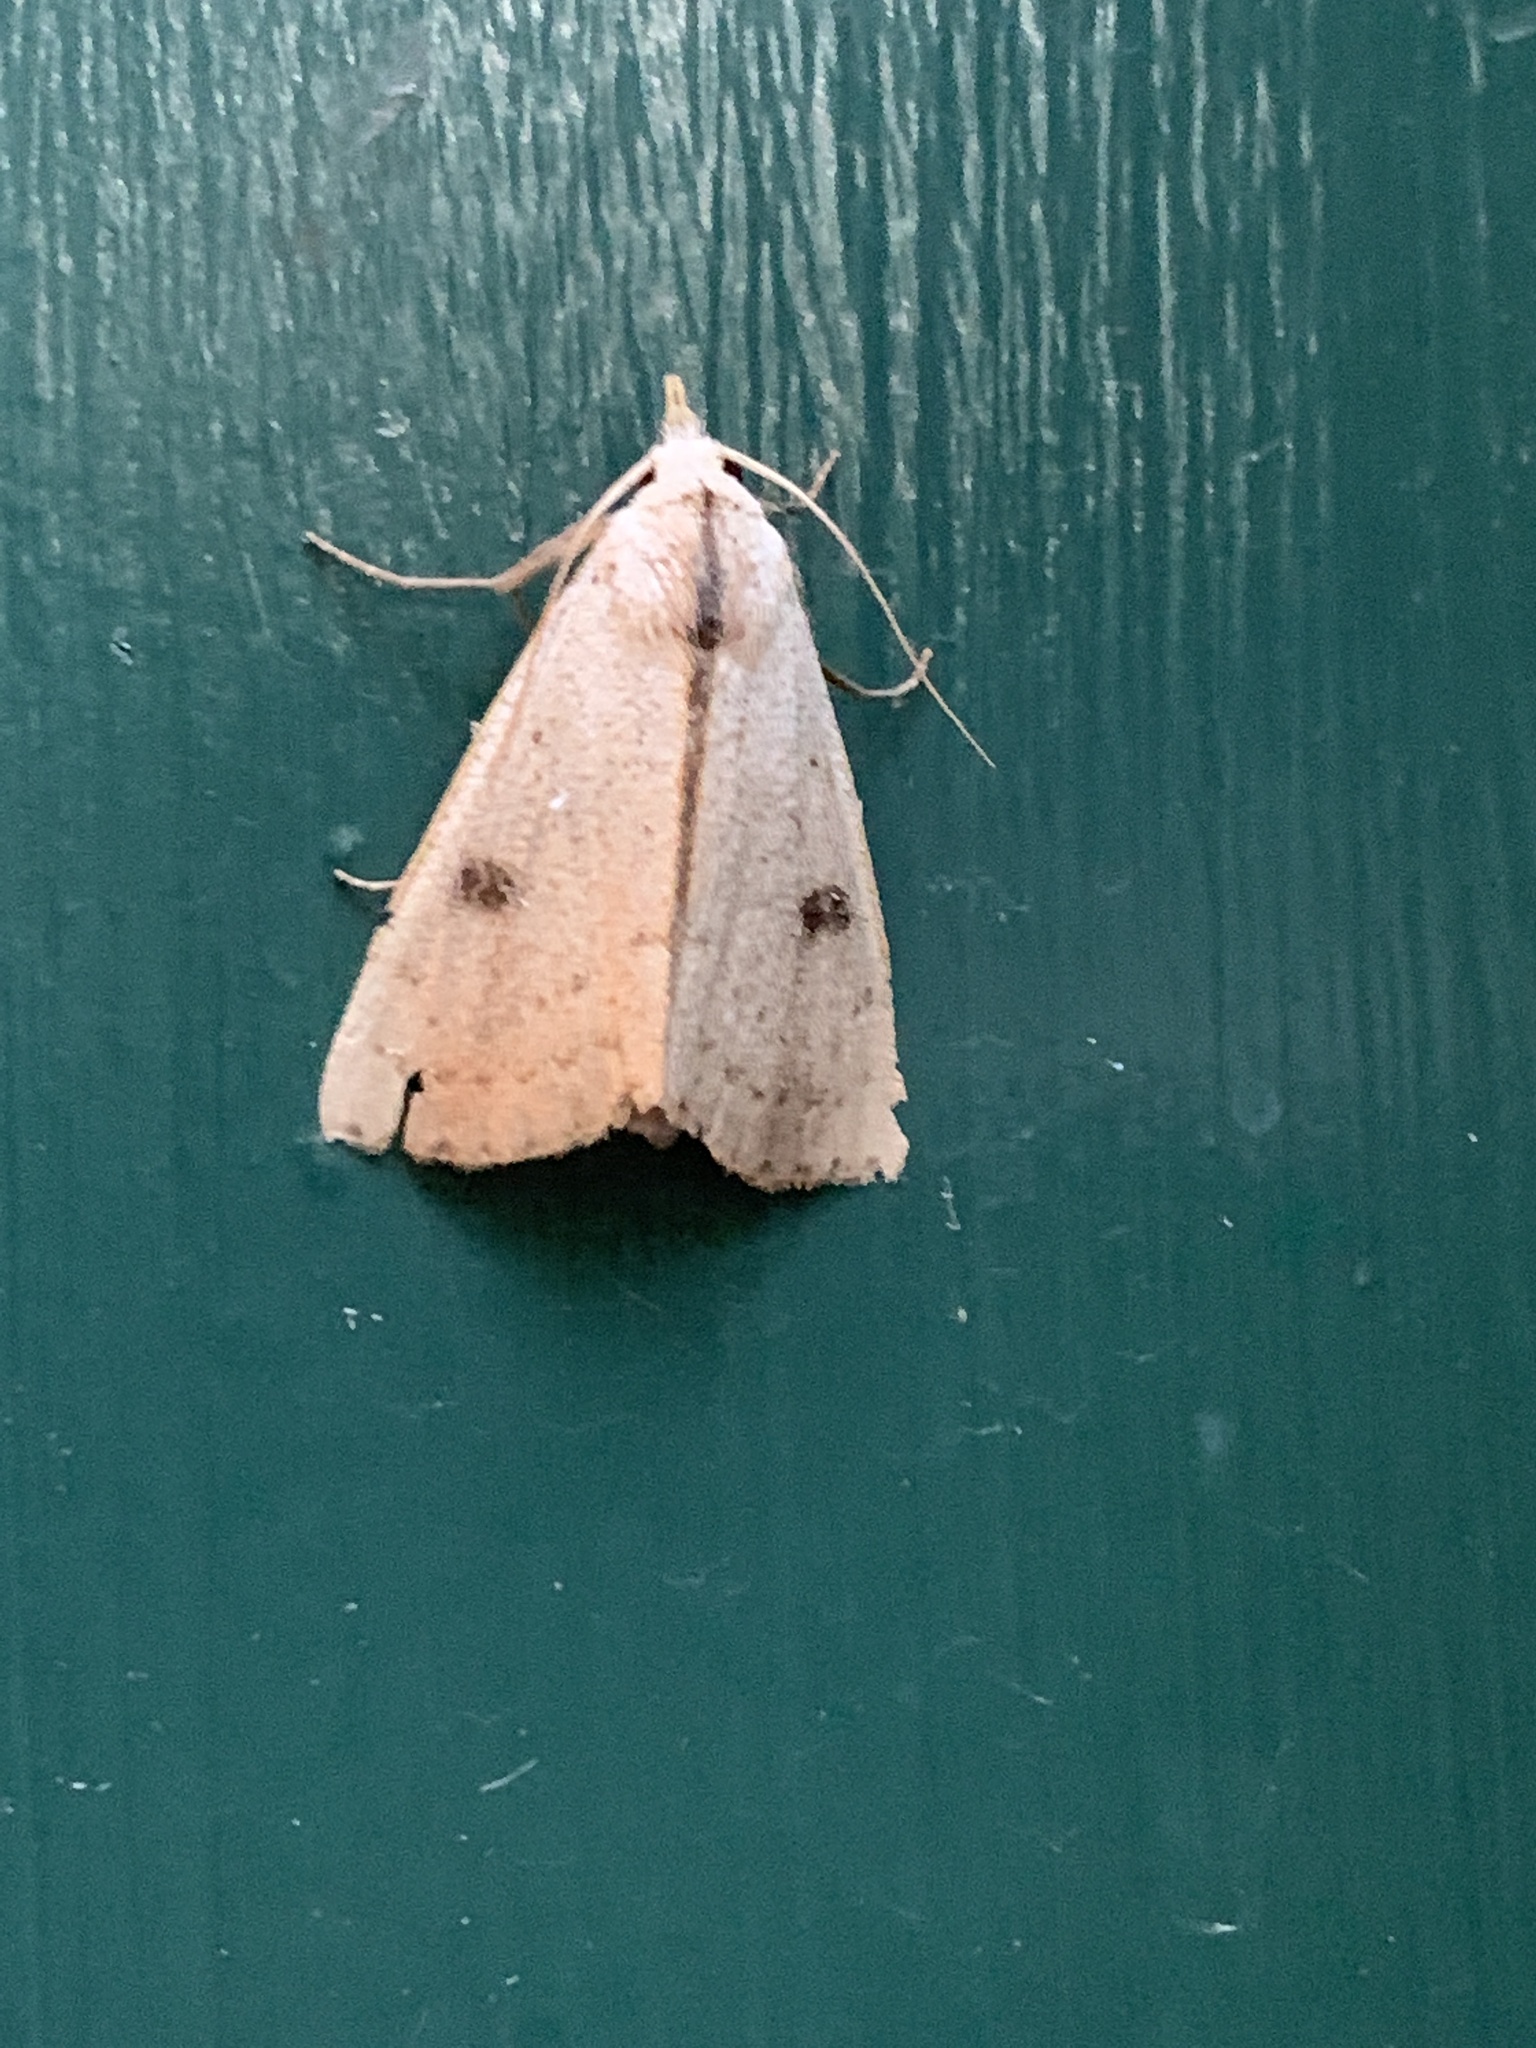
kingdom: Animalia
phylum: Arthropoda
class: Insecta
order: Lepidoptera
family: Erebidae
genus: Rivula
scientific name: Rivula propinqualis
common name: Spotted grass moth
